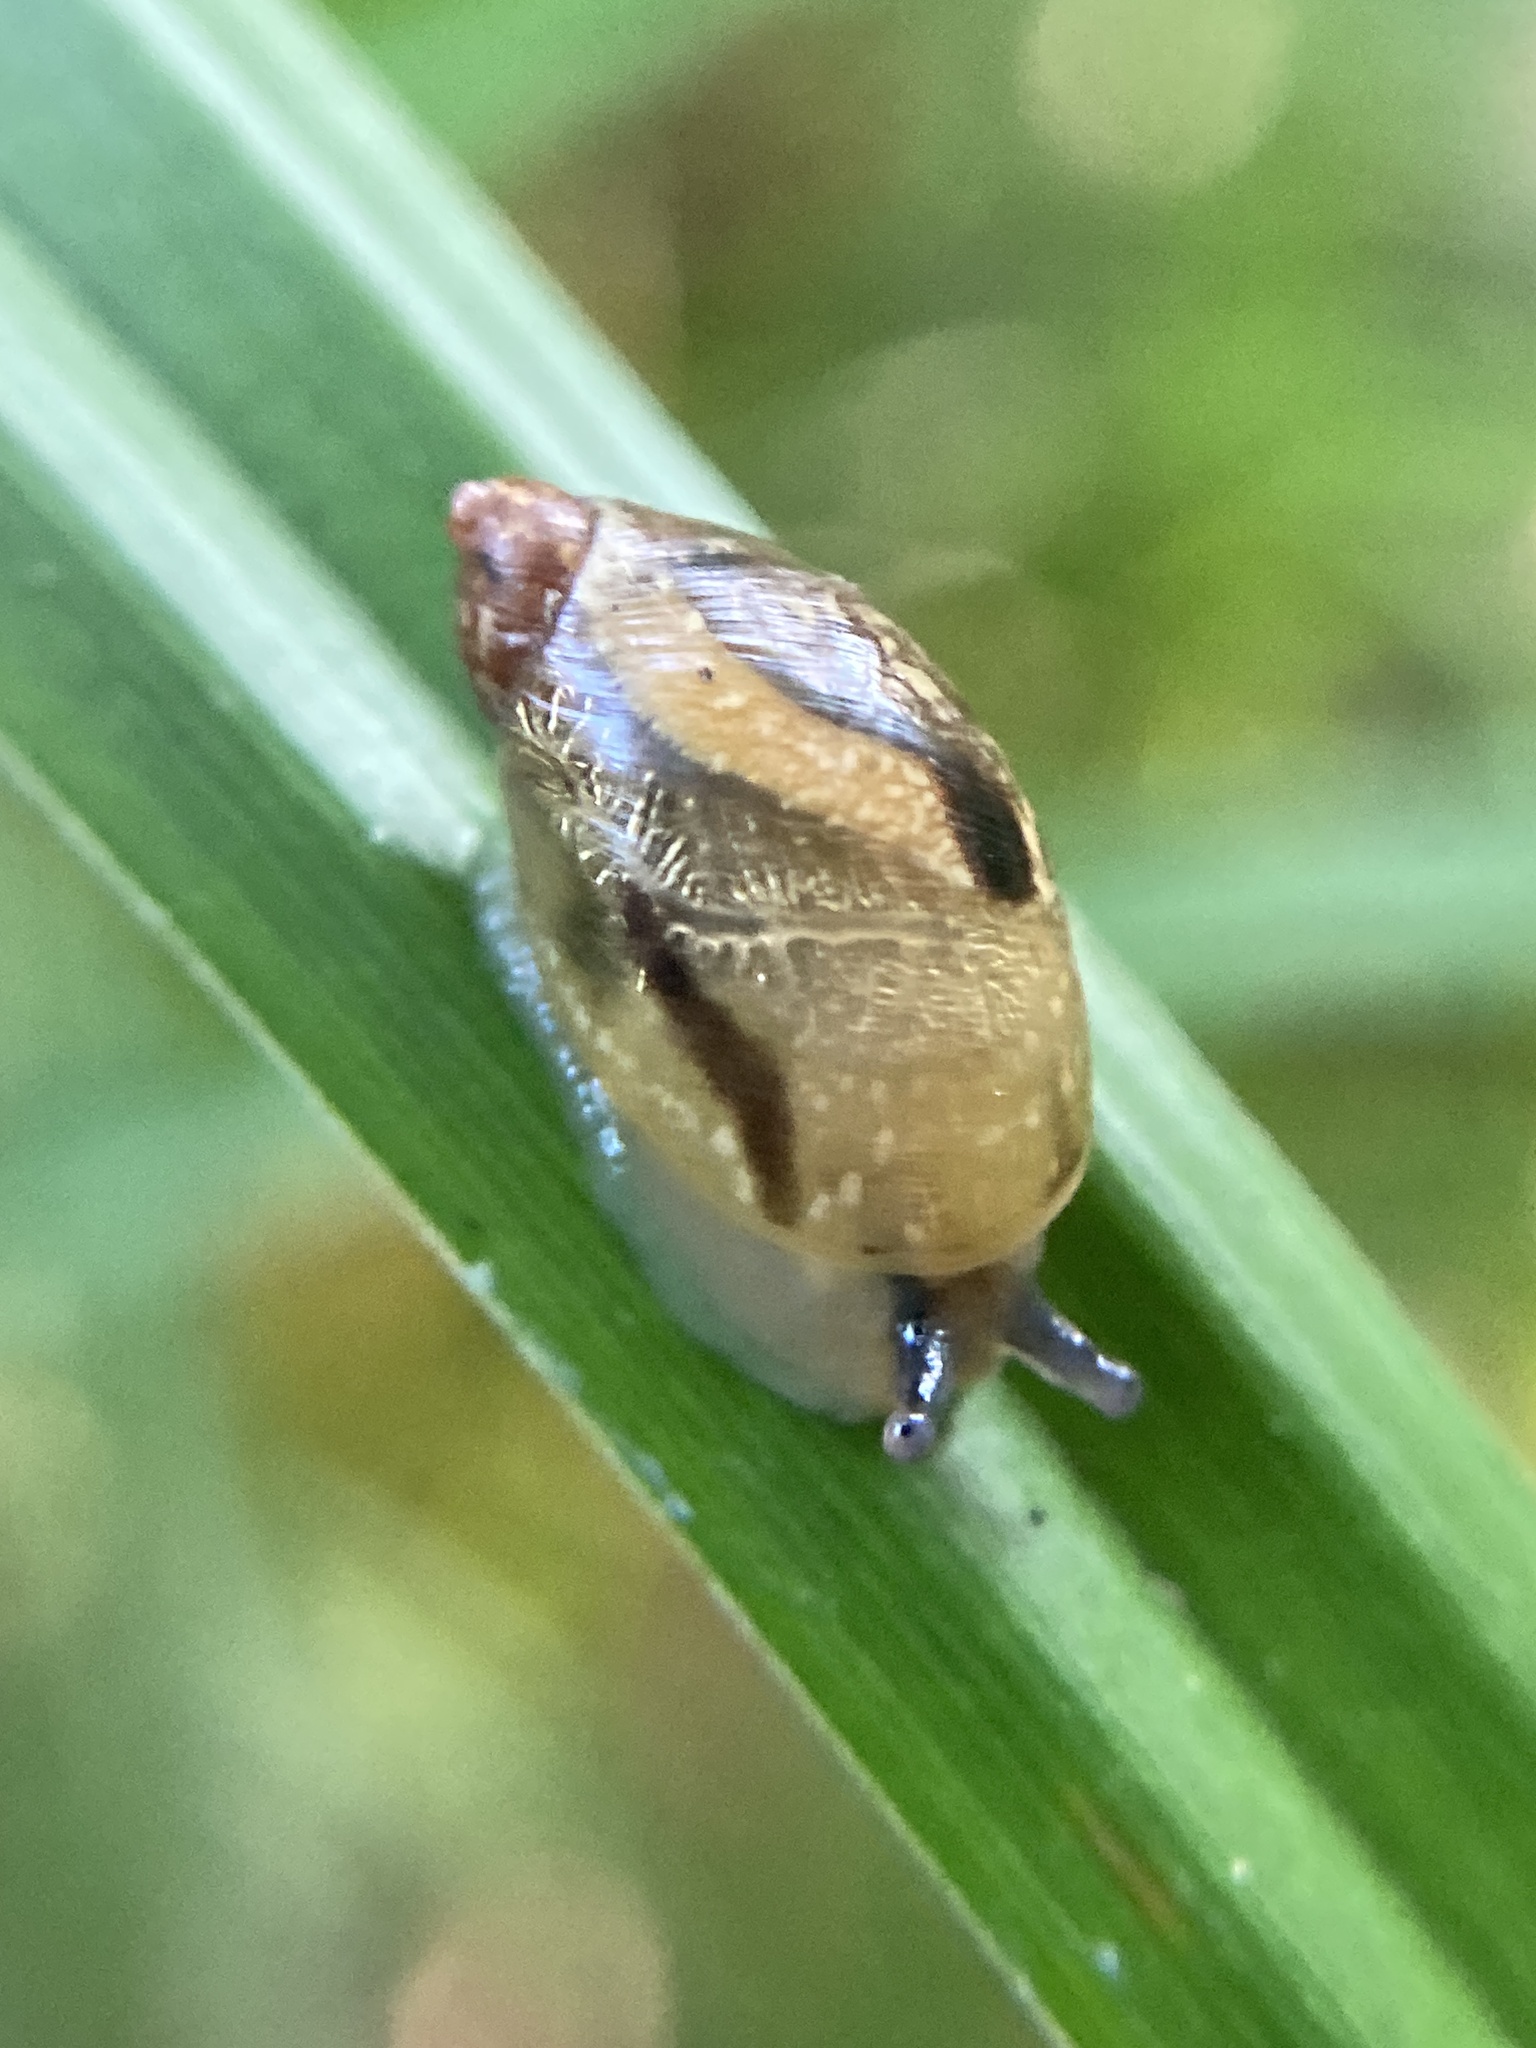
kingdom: Animalia
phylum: Mollusca
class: Gastropoda
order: Stylommatophora
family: Succineidae
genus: Succinea
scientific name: Succinea putris
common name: European ambersnail
